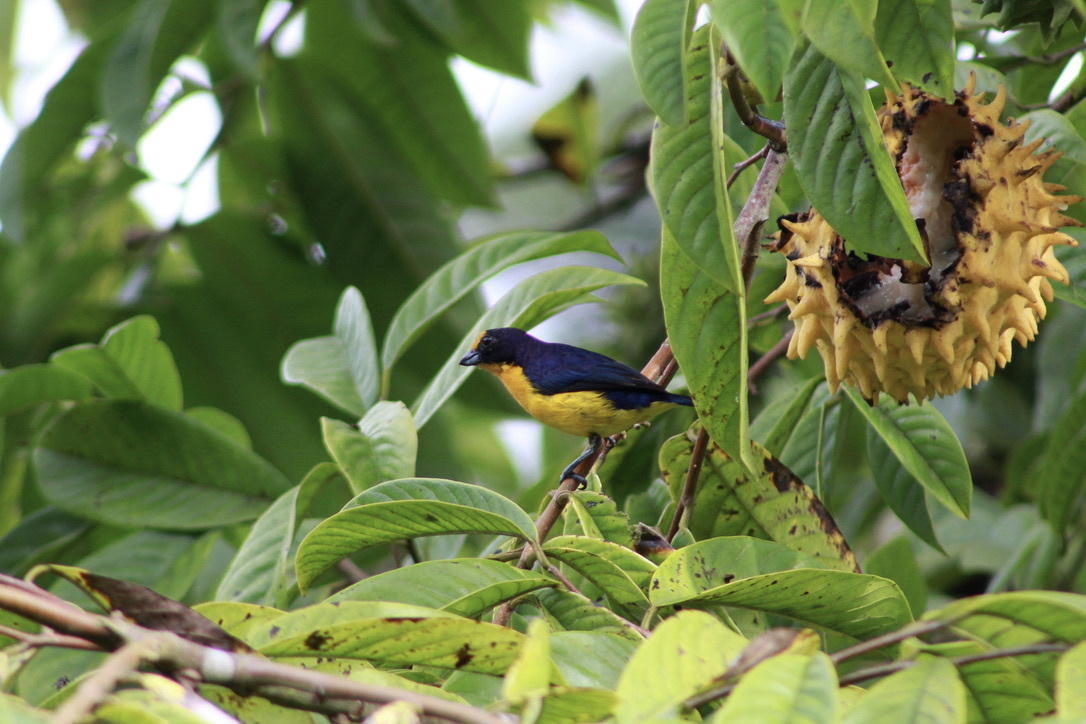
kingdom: Animalia
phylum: Chordata
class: Aves
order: Passeriformes
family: Fringillidae
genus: Euphonia
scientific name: Euphonia violacea
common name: Violaceous euphonia
